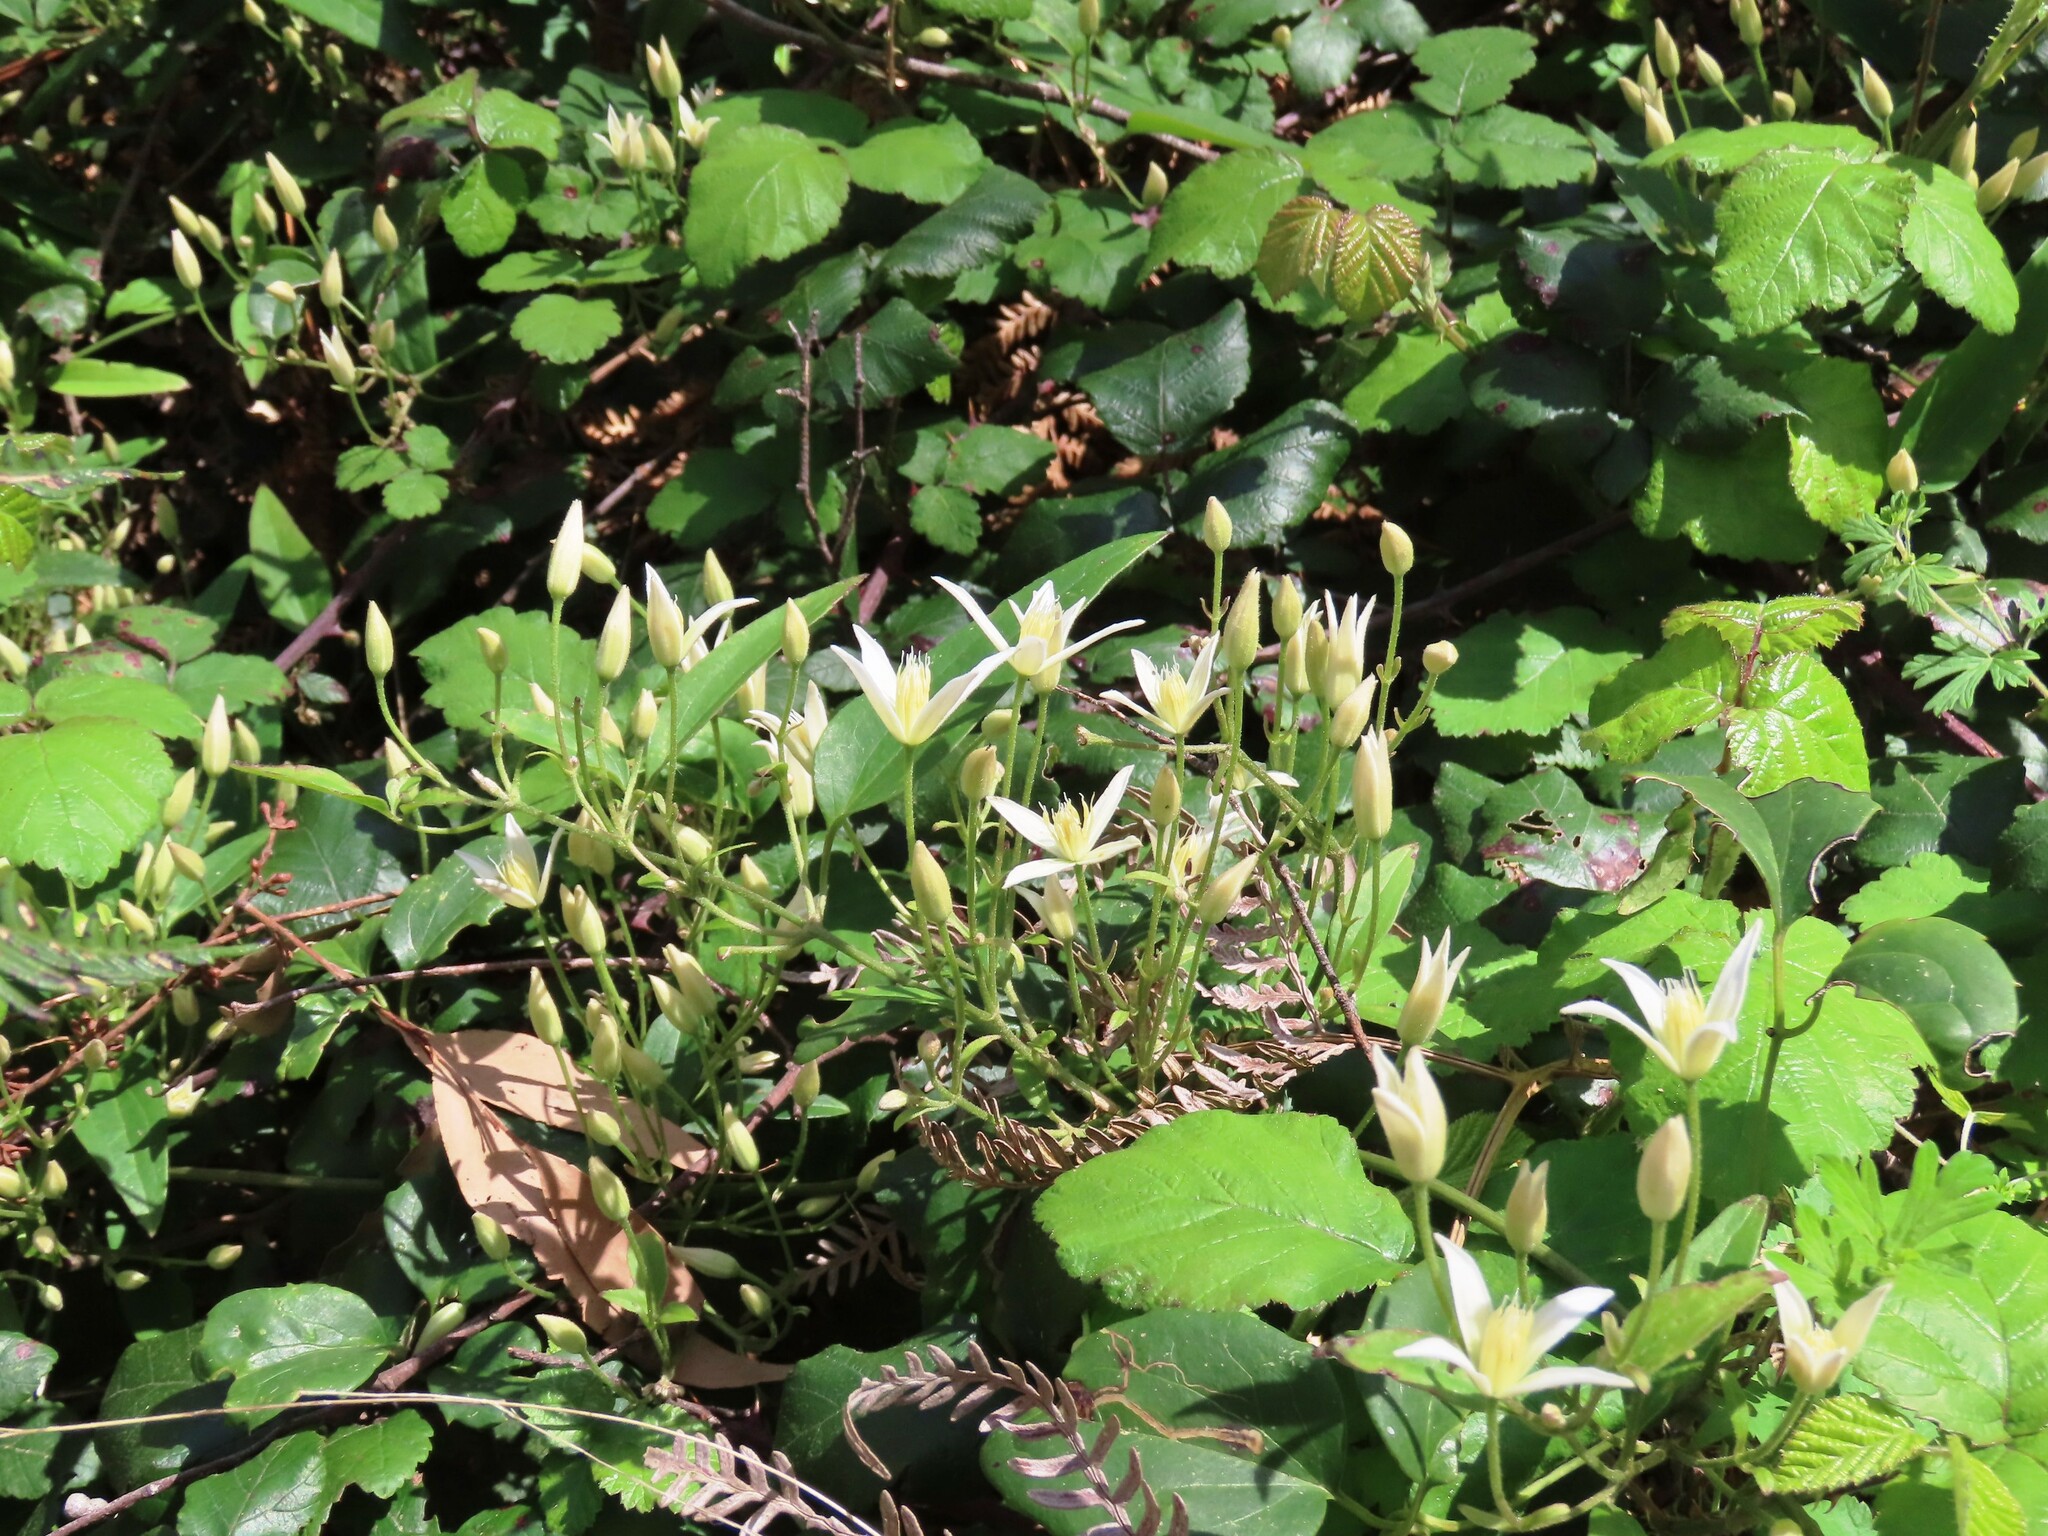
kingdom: Plantae
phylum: Tracheophyta
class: Magnoliopsida
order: Ranunculales
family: Ranunculaceae
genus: Clematis
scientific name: Clematis aristata
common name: Mountain clematis
